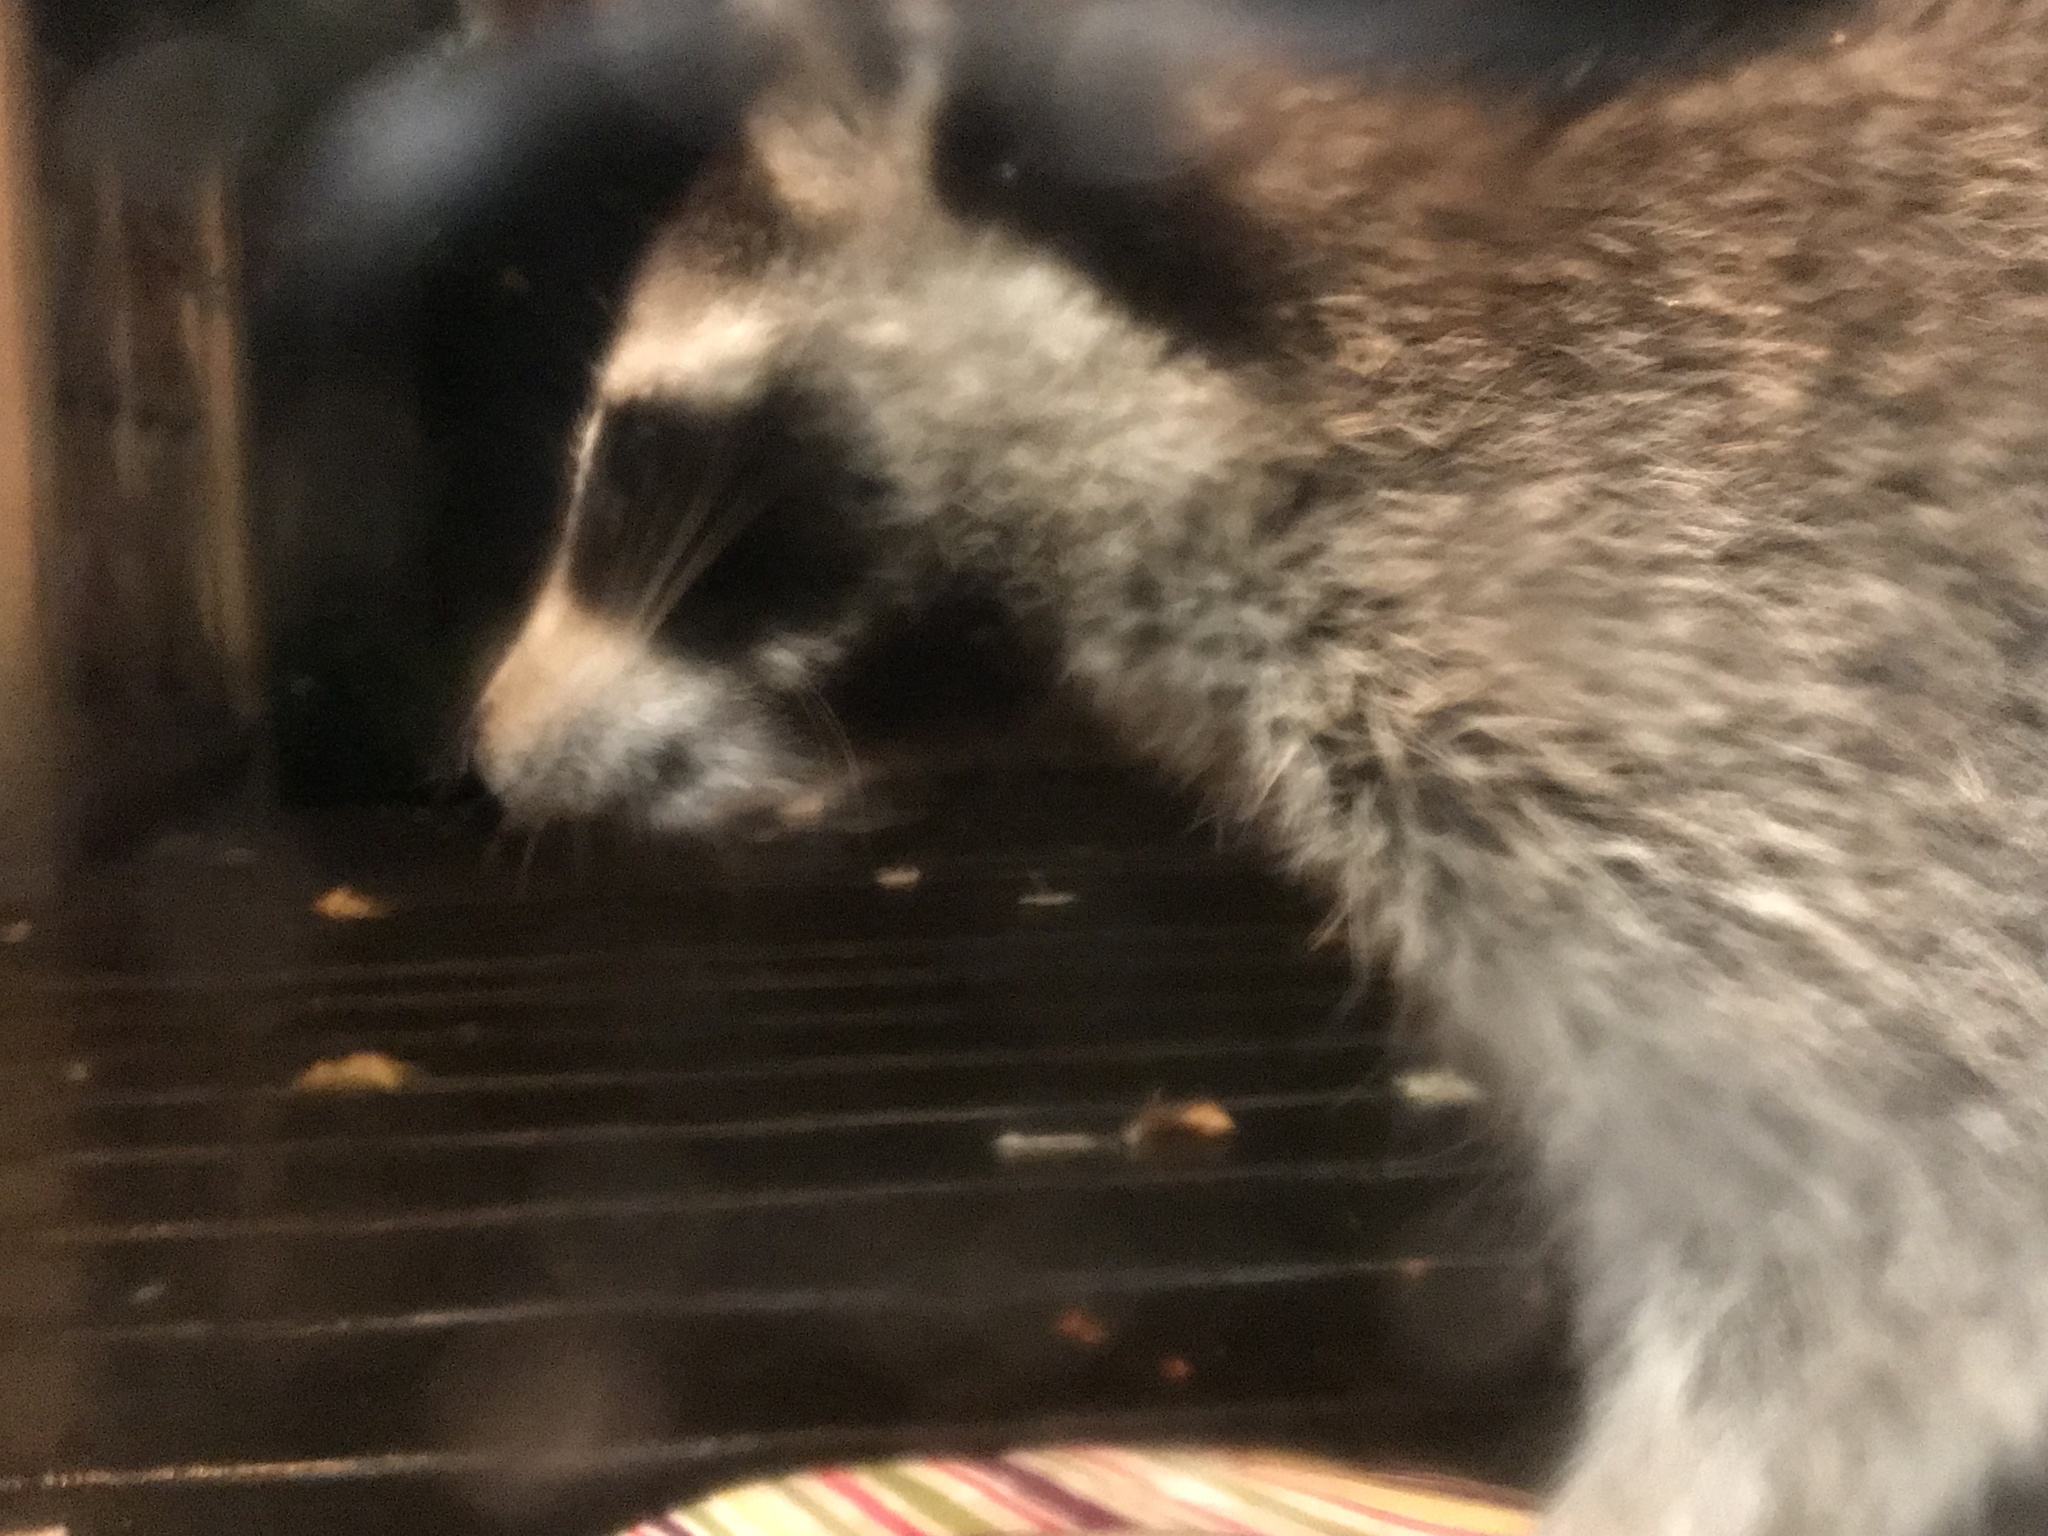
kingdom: Animalia
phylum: Chordata
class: Mammalia
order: Carnivora
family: Procyonidae
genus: Procyon
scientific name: Procyon lotor
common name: Raccoon
